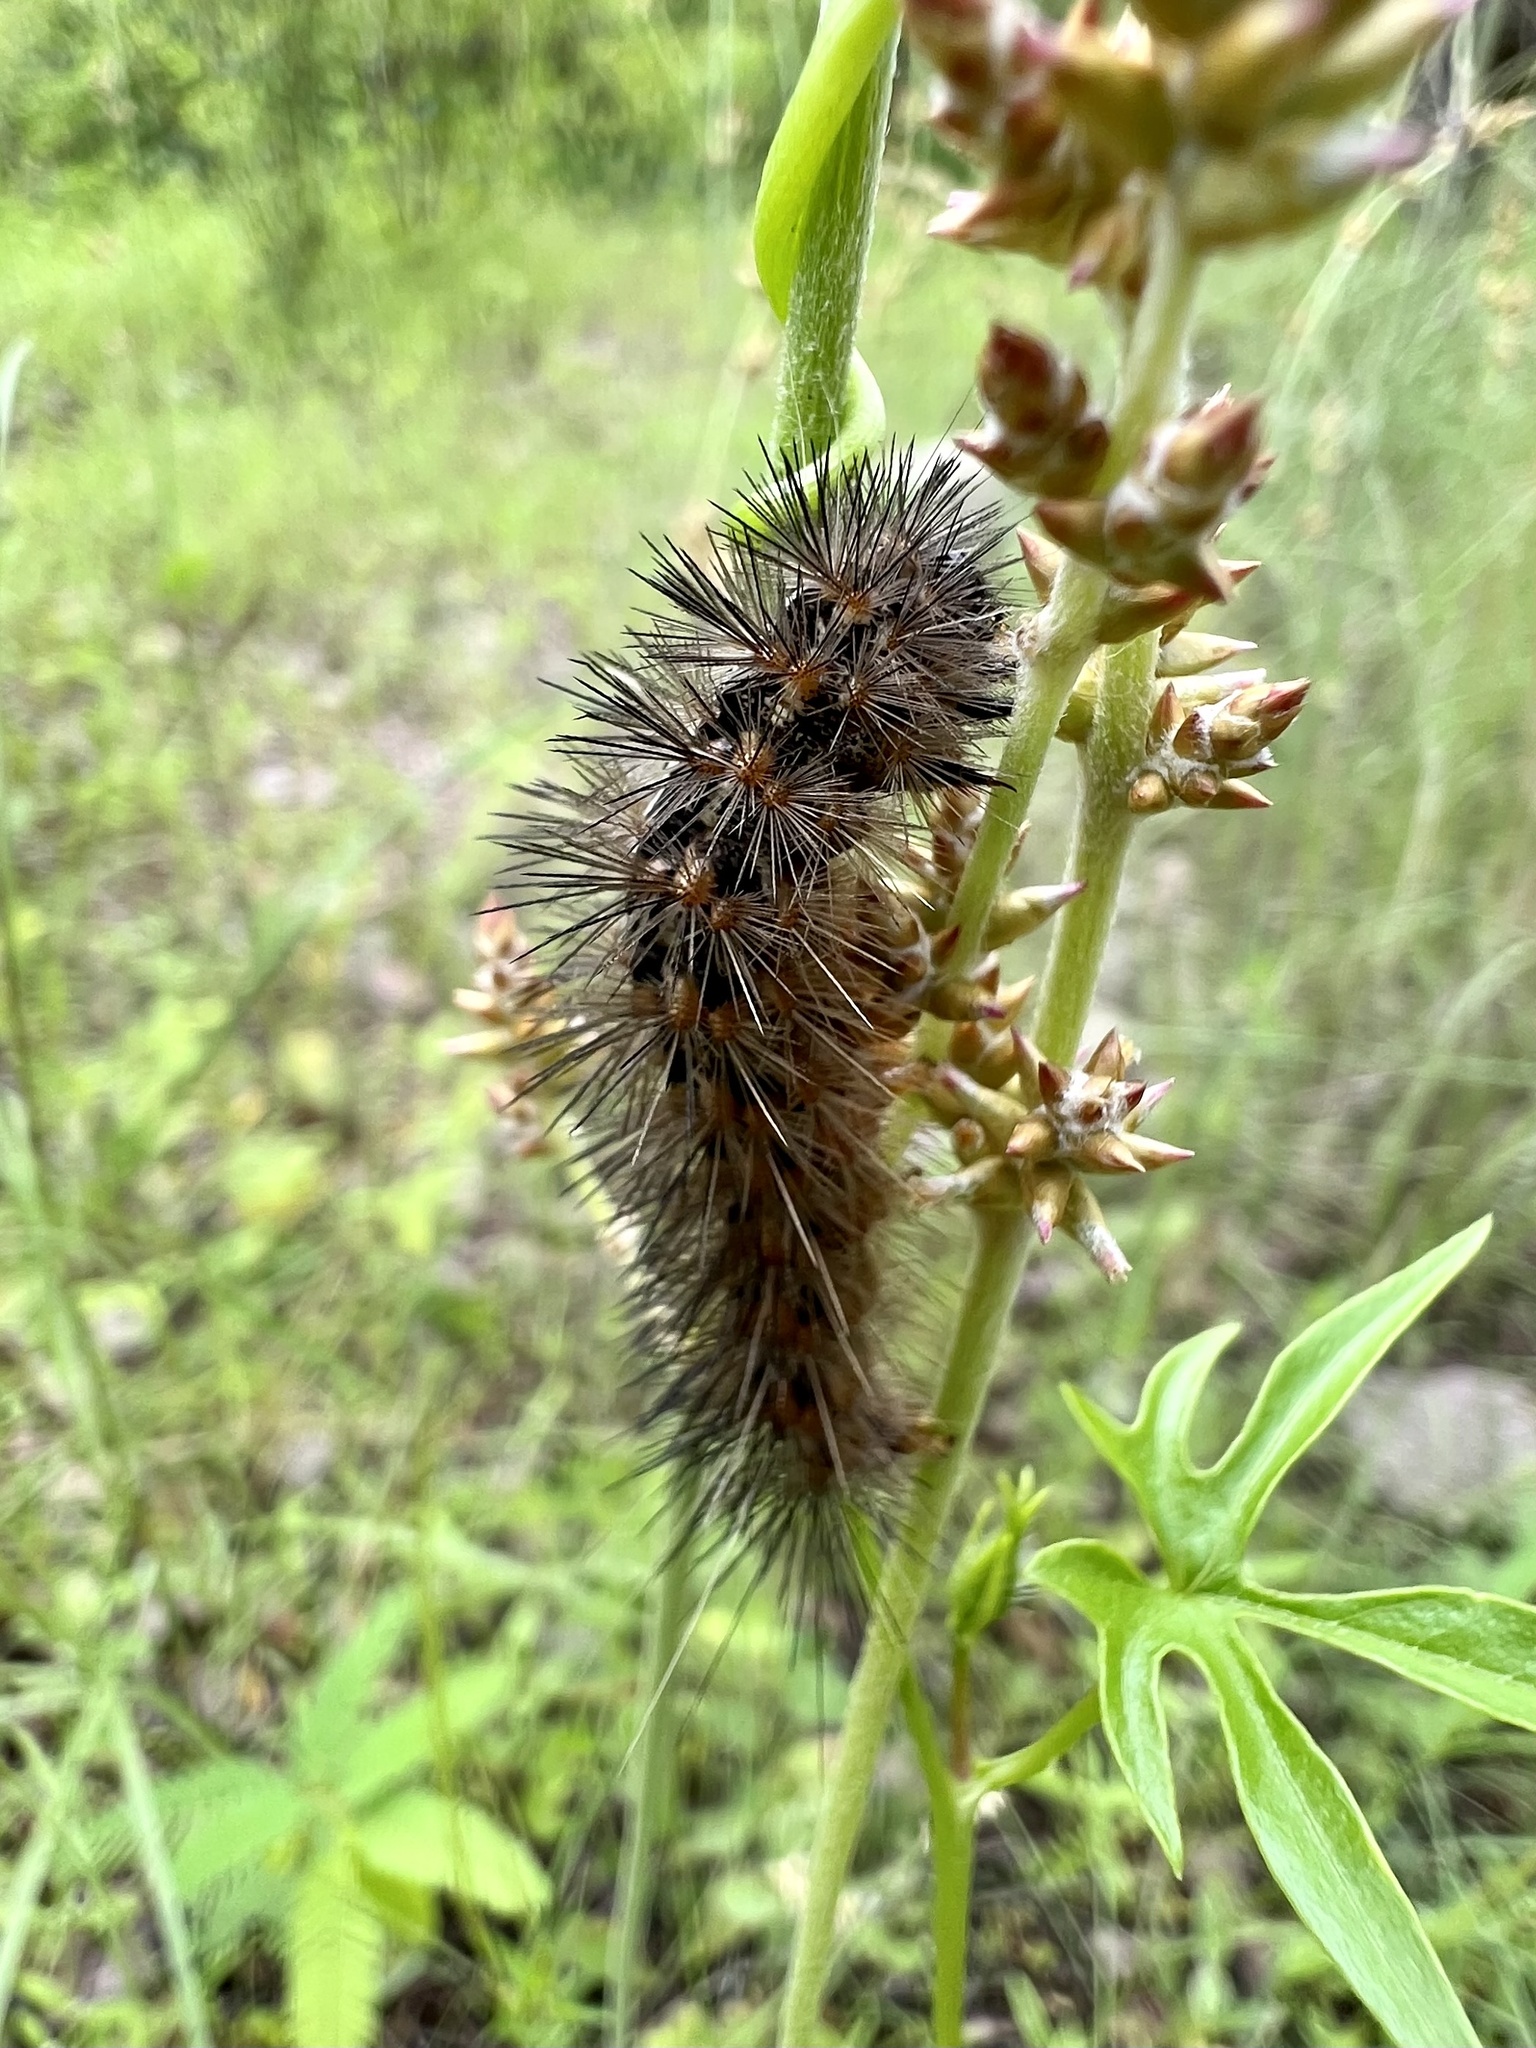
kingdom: Animalia
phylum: Arthropoda
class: Insecta
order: Lepidoptera
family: Erebidae
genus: Estigmene
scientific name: Estigmene
